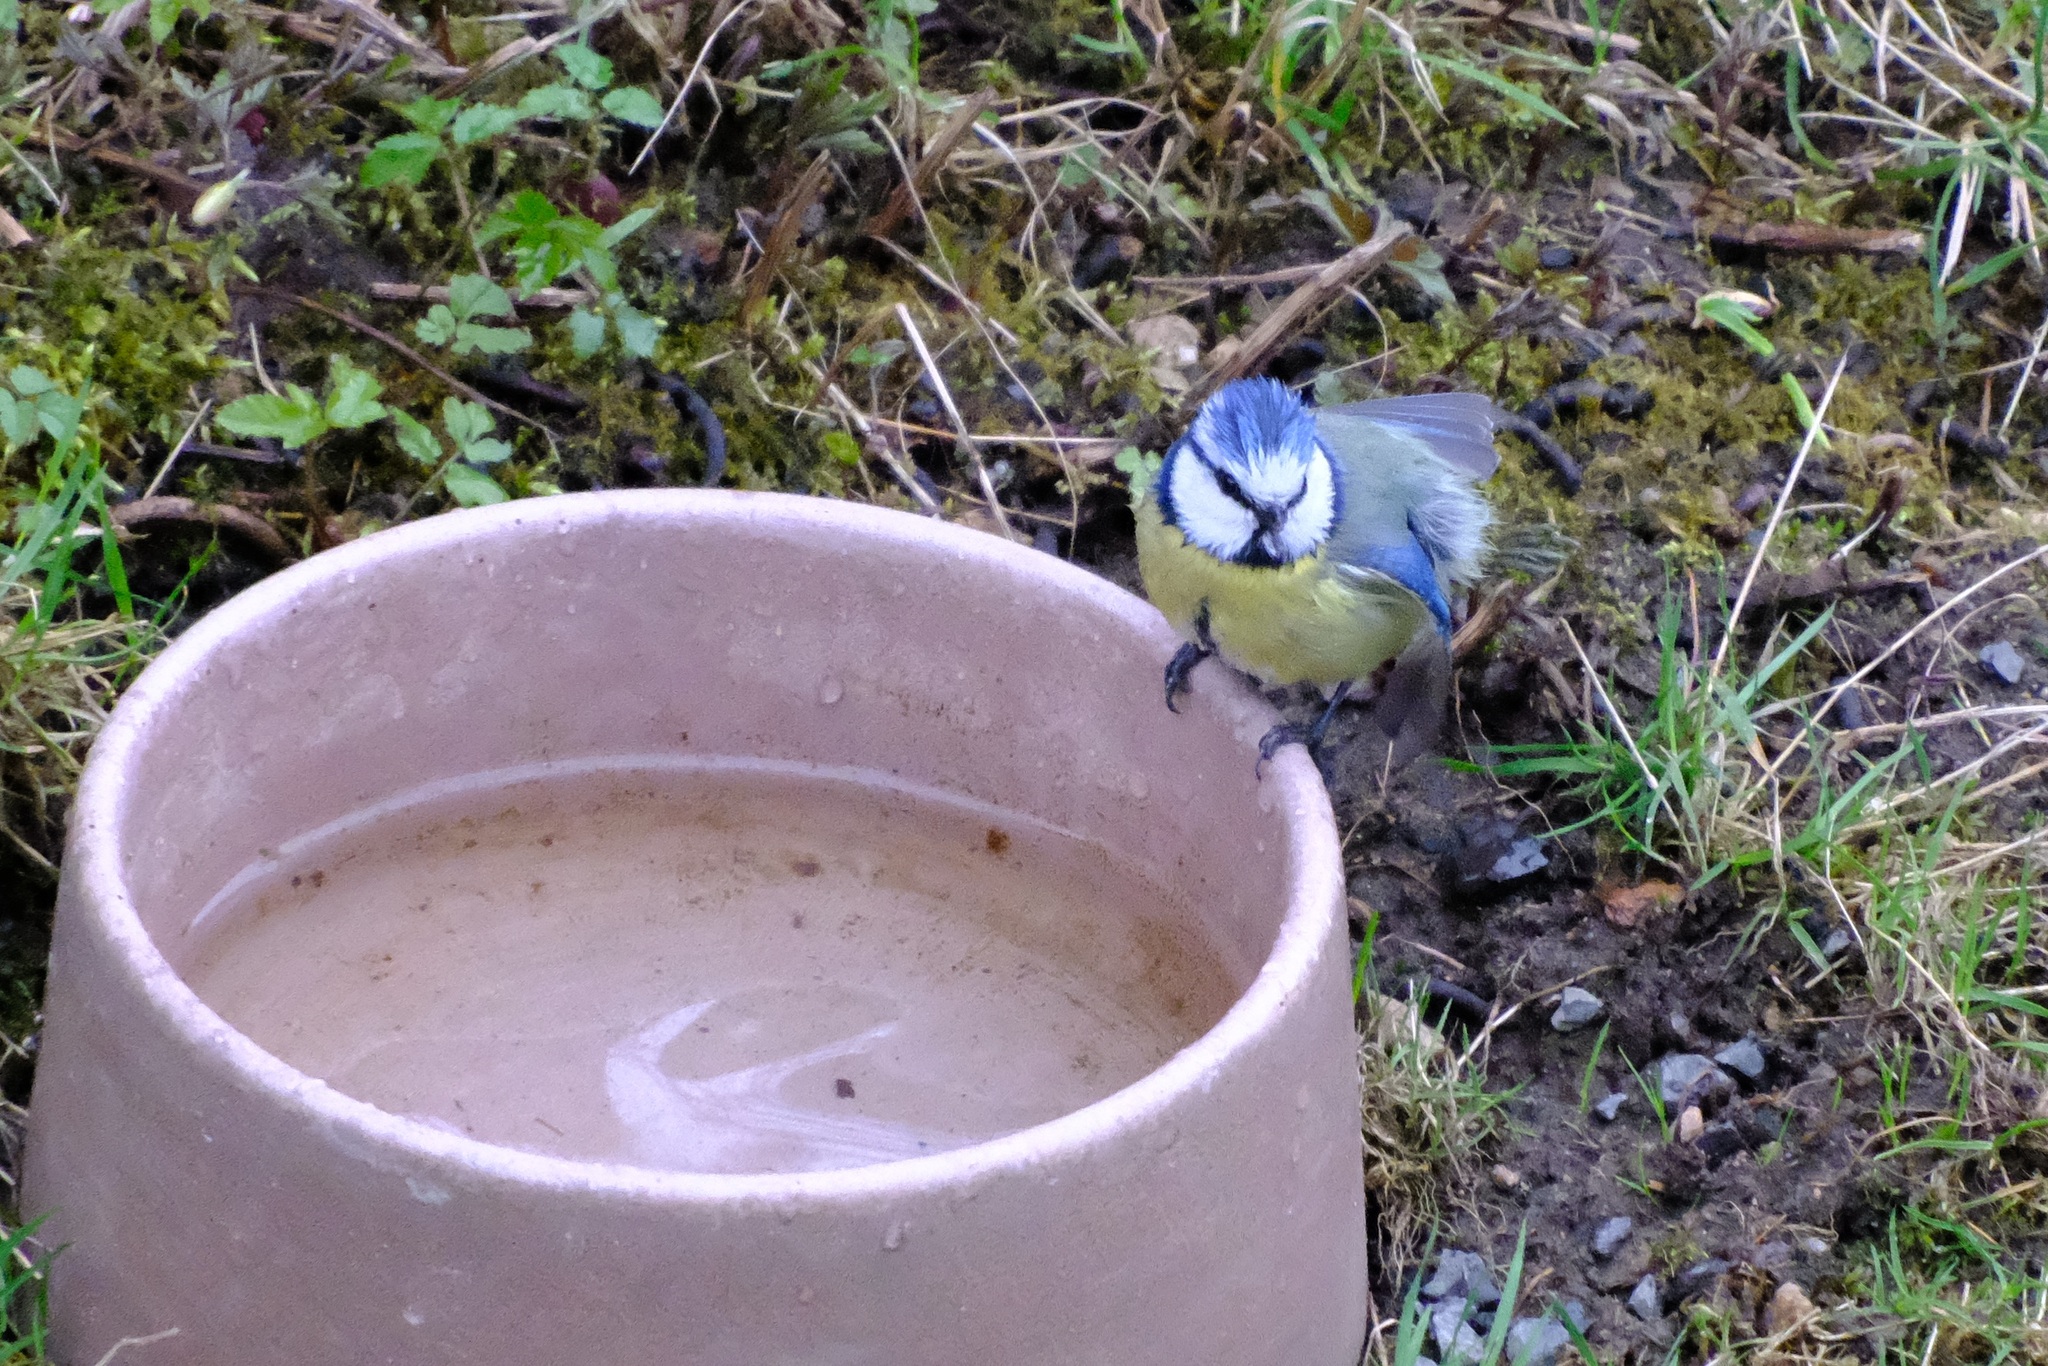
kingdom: Animalia
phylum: Chordata
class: Aves
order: Passeriformes
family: Paridae
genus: Cyanistes
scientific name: Cyanistes caeruleus
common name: Eurasian blue tit
